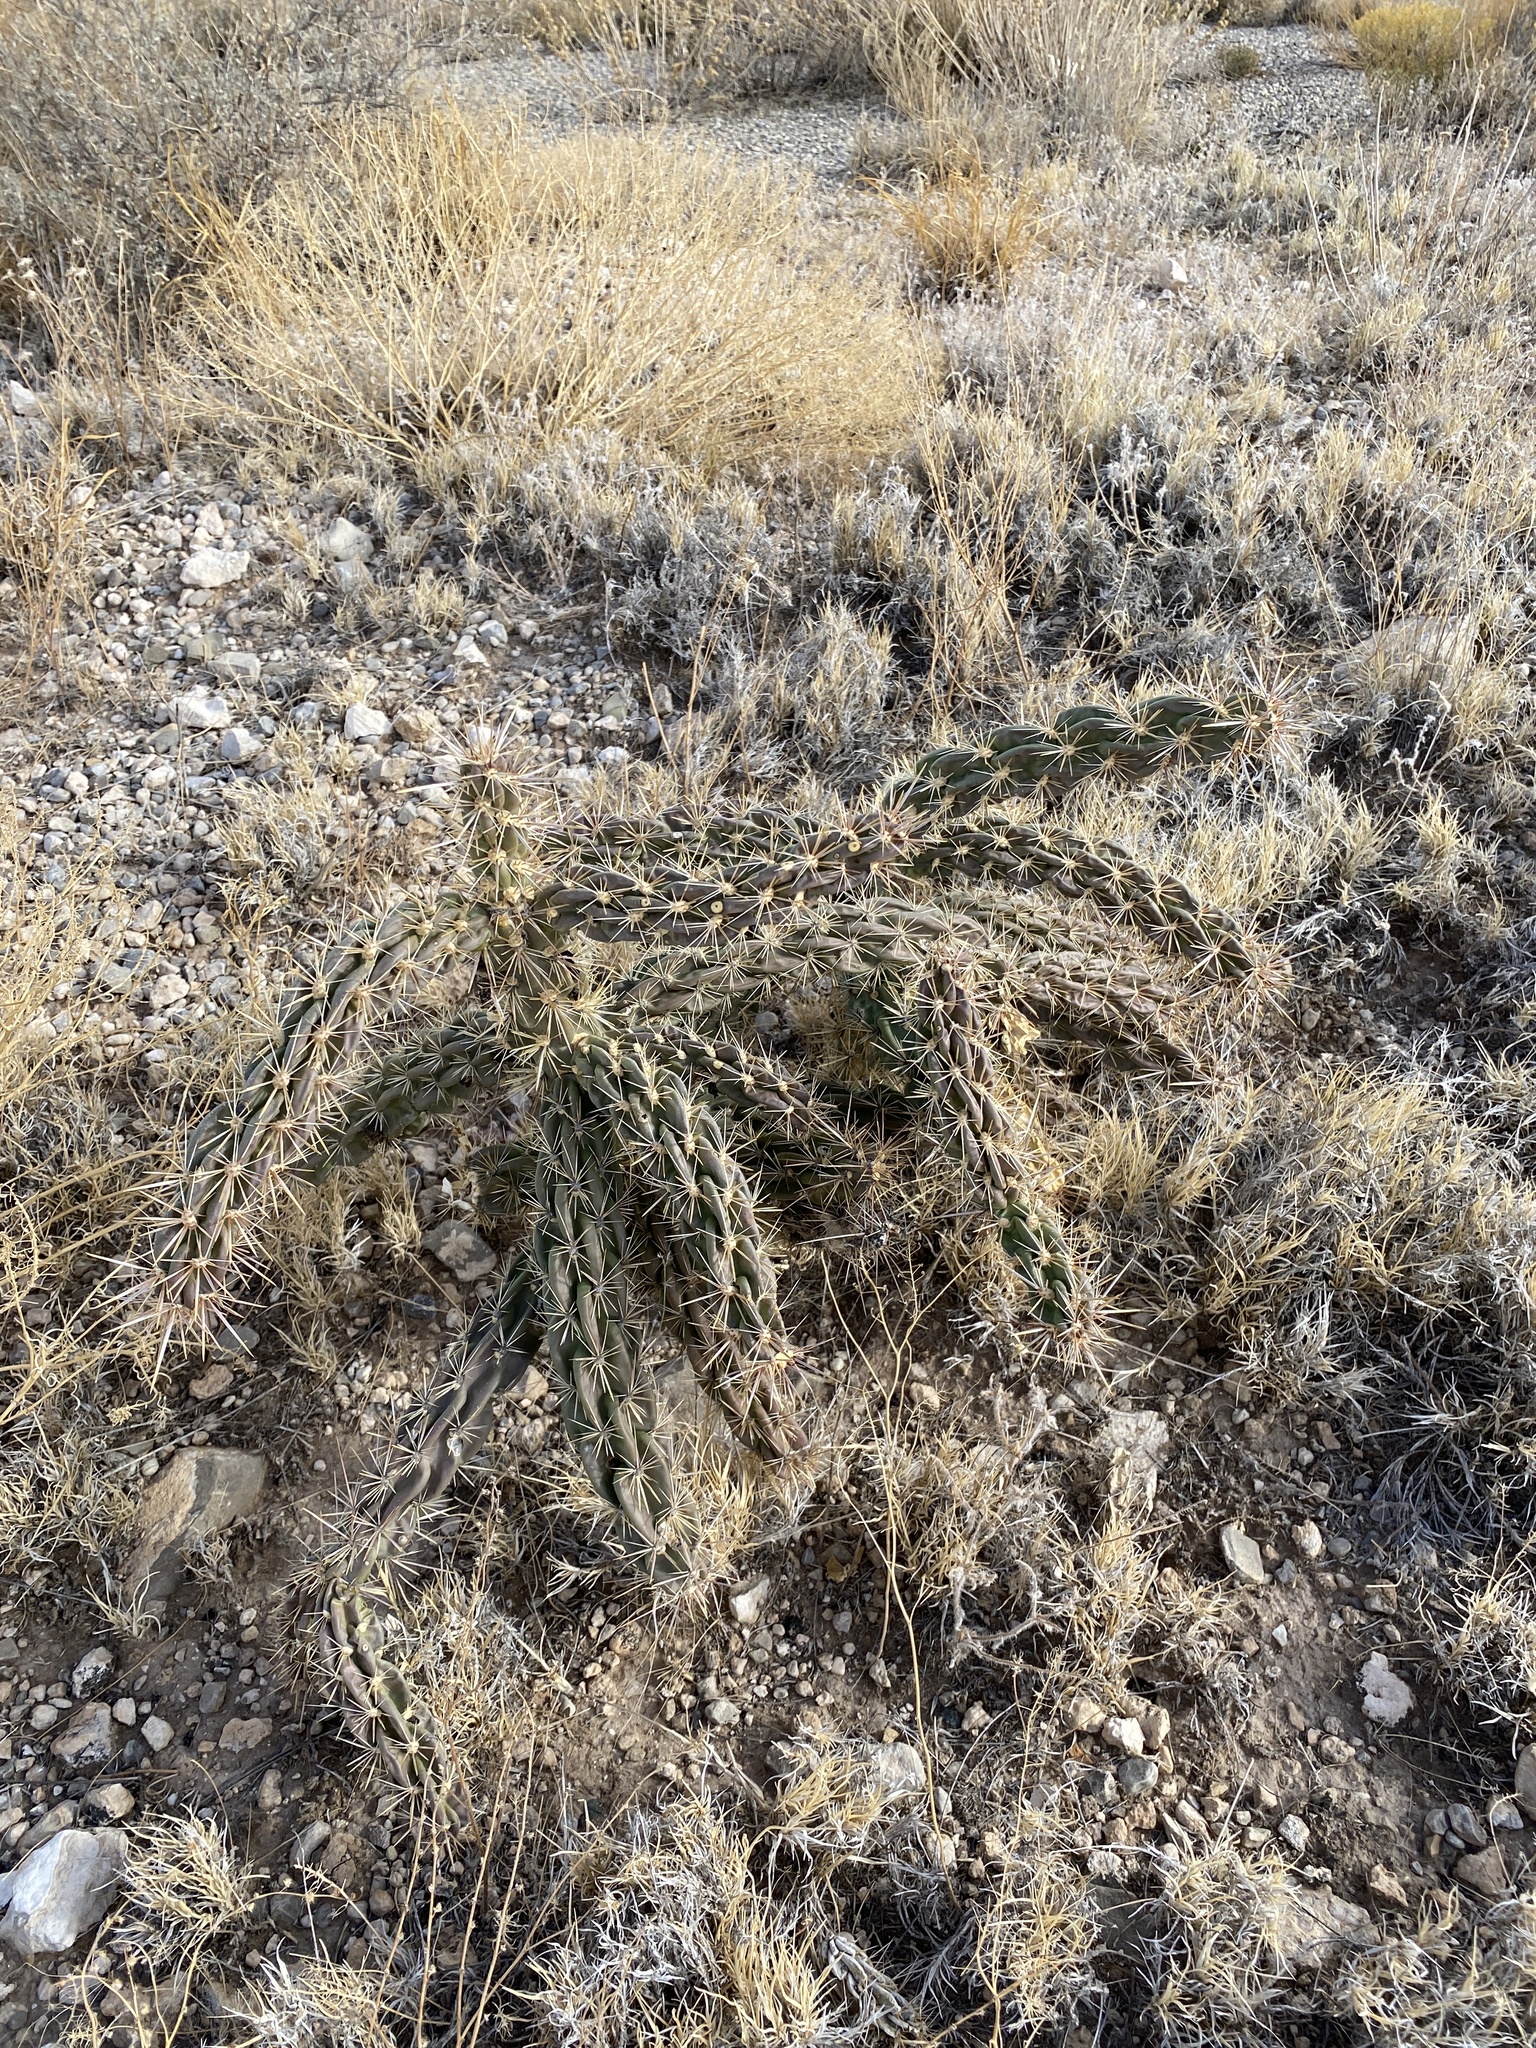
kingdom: Plantae
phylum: Tracheophyta
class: Magnoliopsida
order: Caryophyllales
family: Cactaceae
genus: Cylindropuntia
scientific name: Cylindropuntia imbricata
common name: Candelabrum cactus
